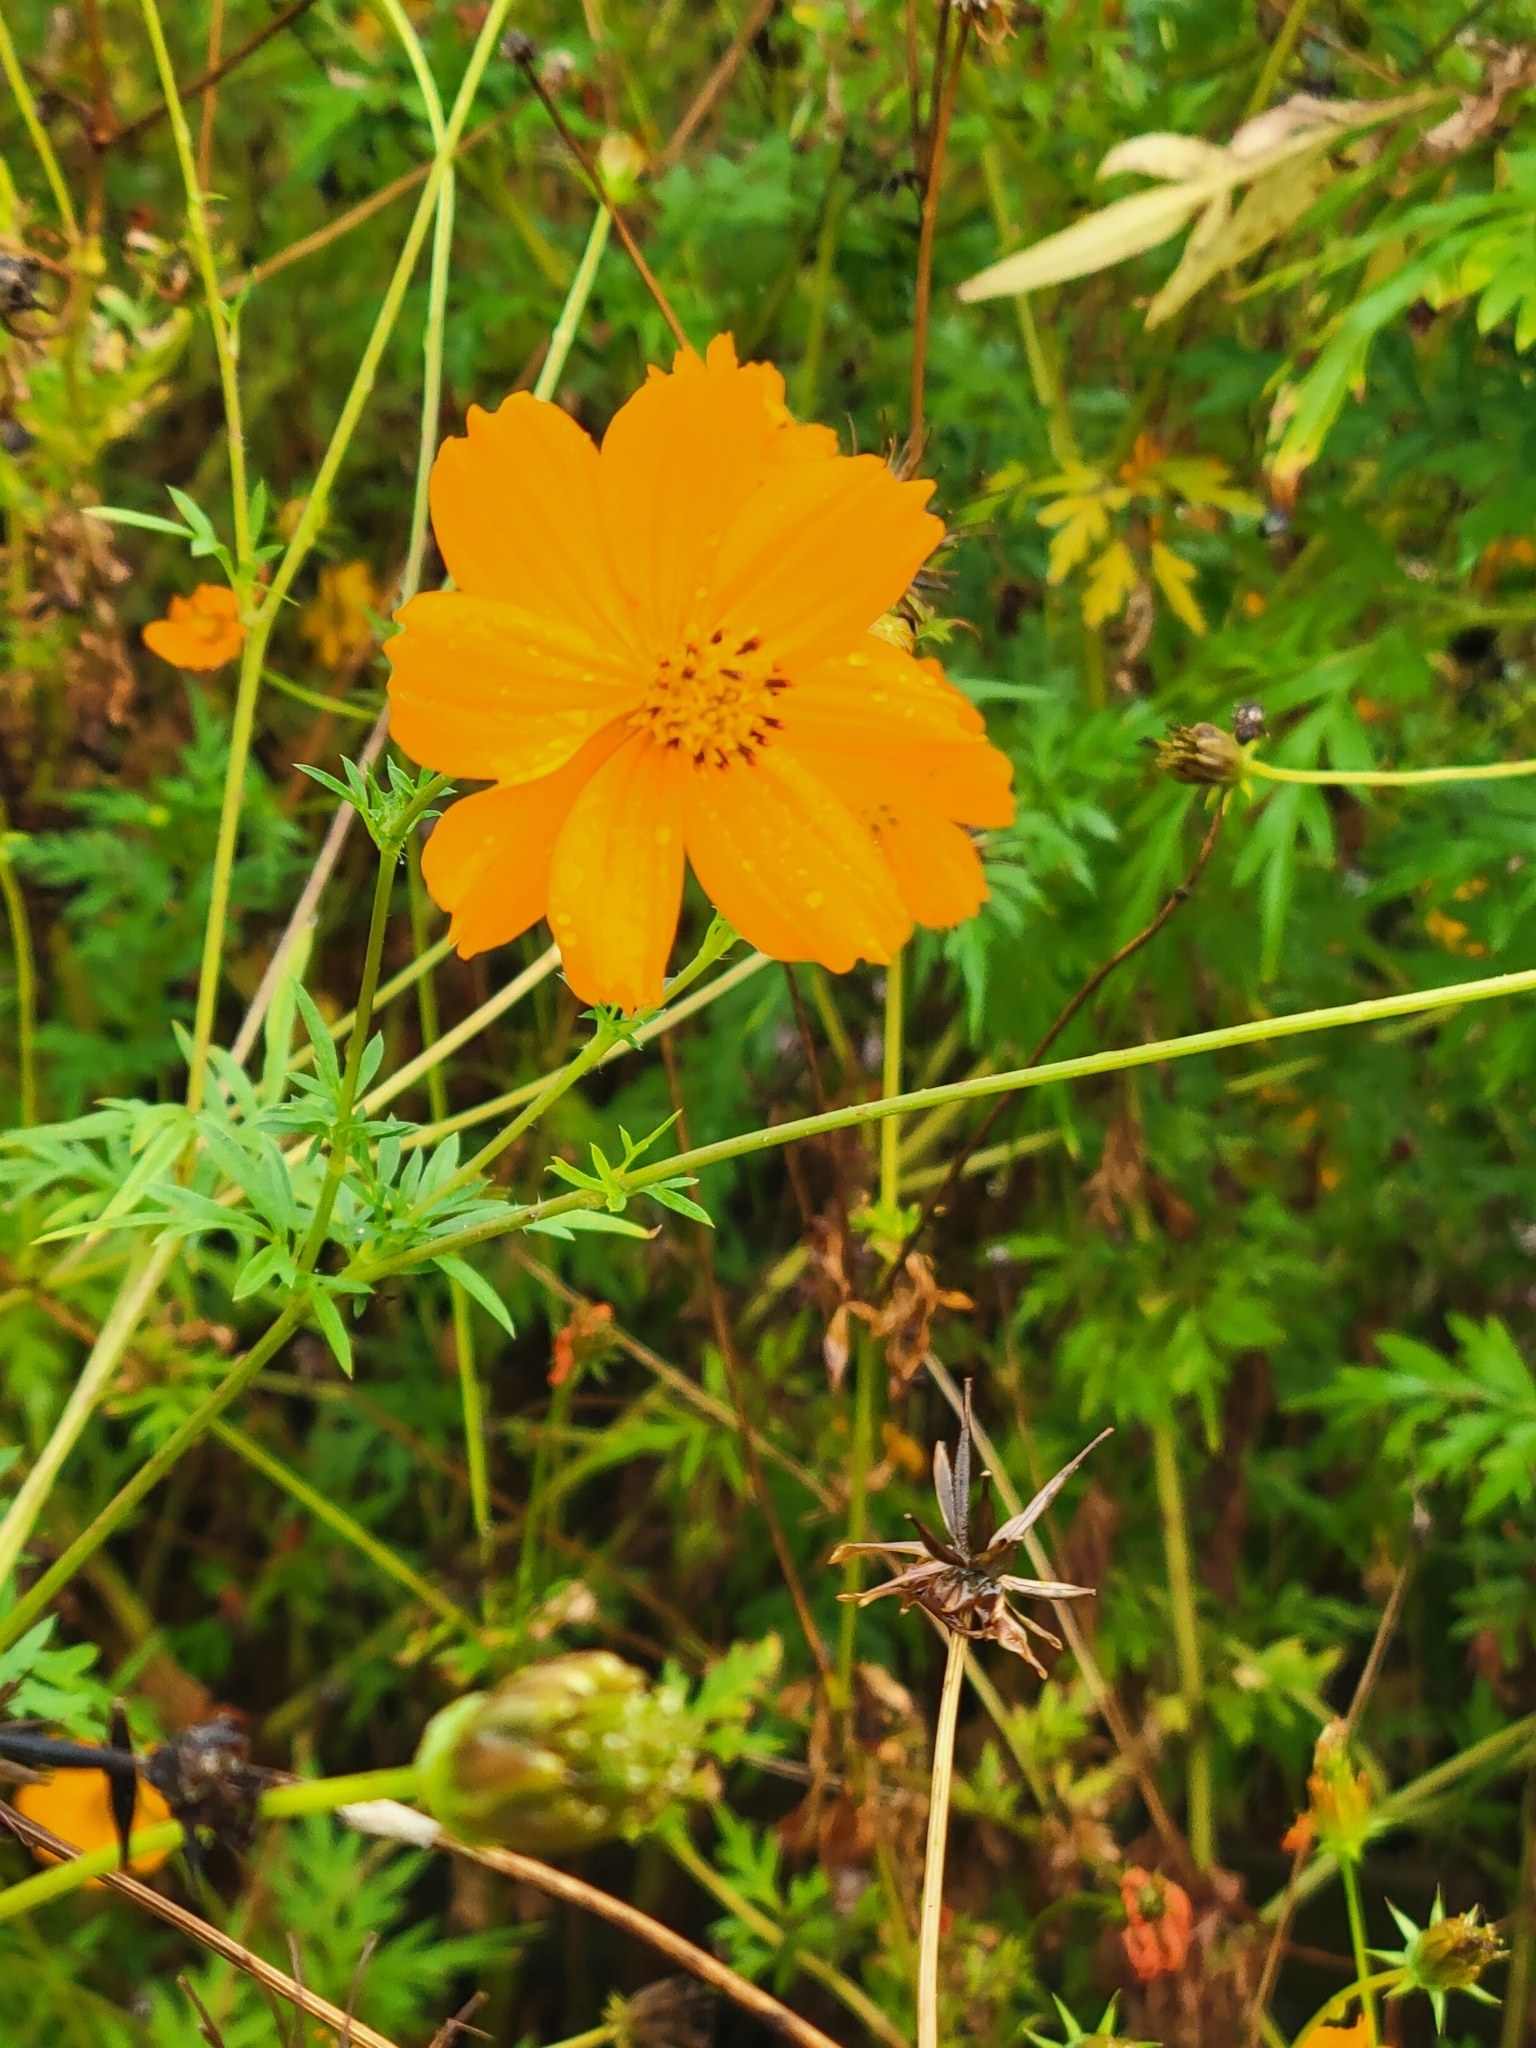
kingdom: Plantae
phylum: Tracheophyta
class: Magnoliopsida
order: Asterales
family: Asteraceae
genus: Cosmos
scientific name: Cosmos sulphureus
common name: Sulphur cosmos
